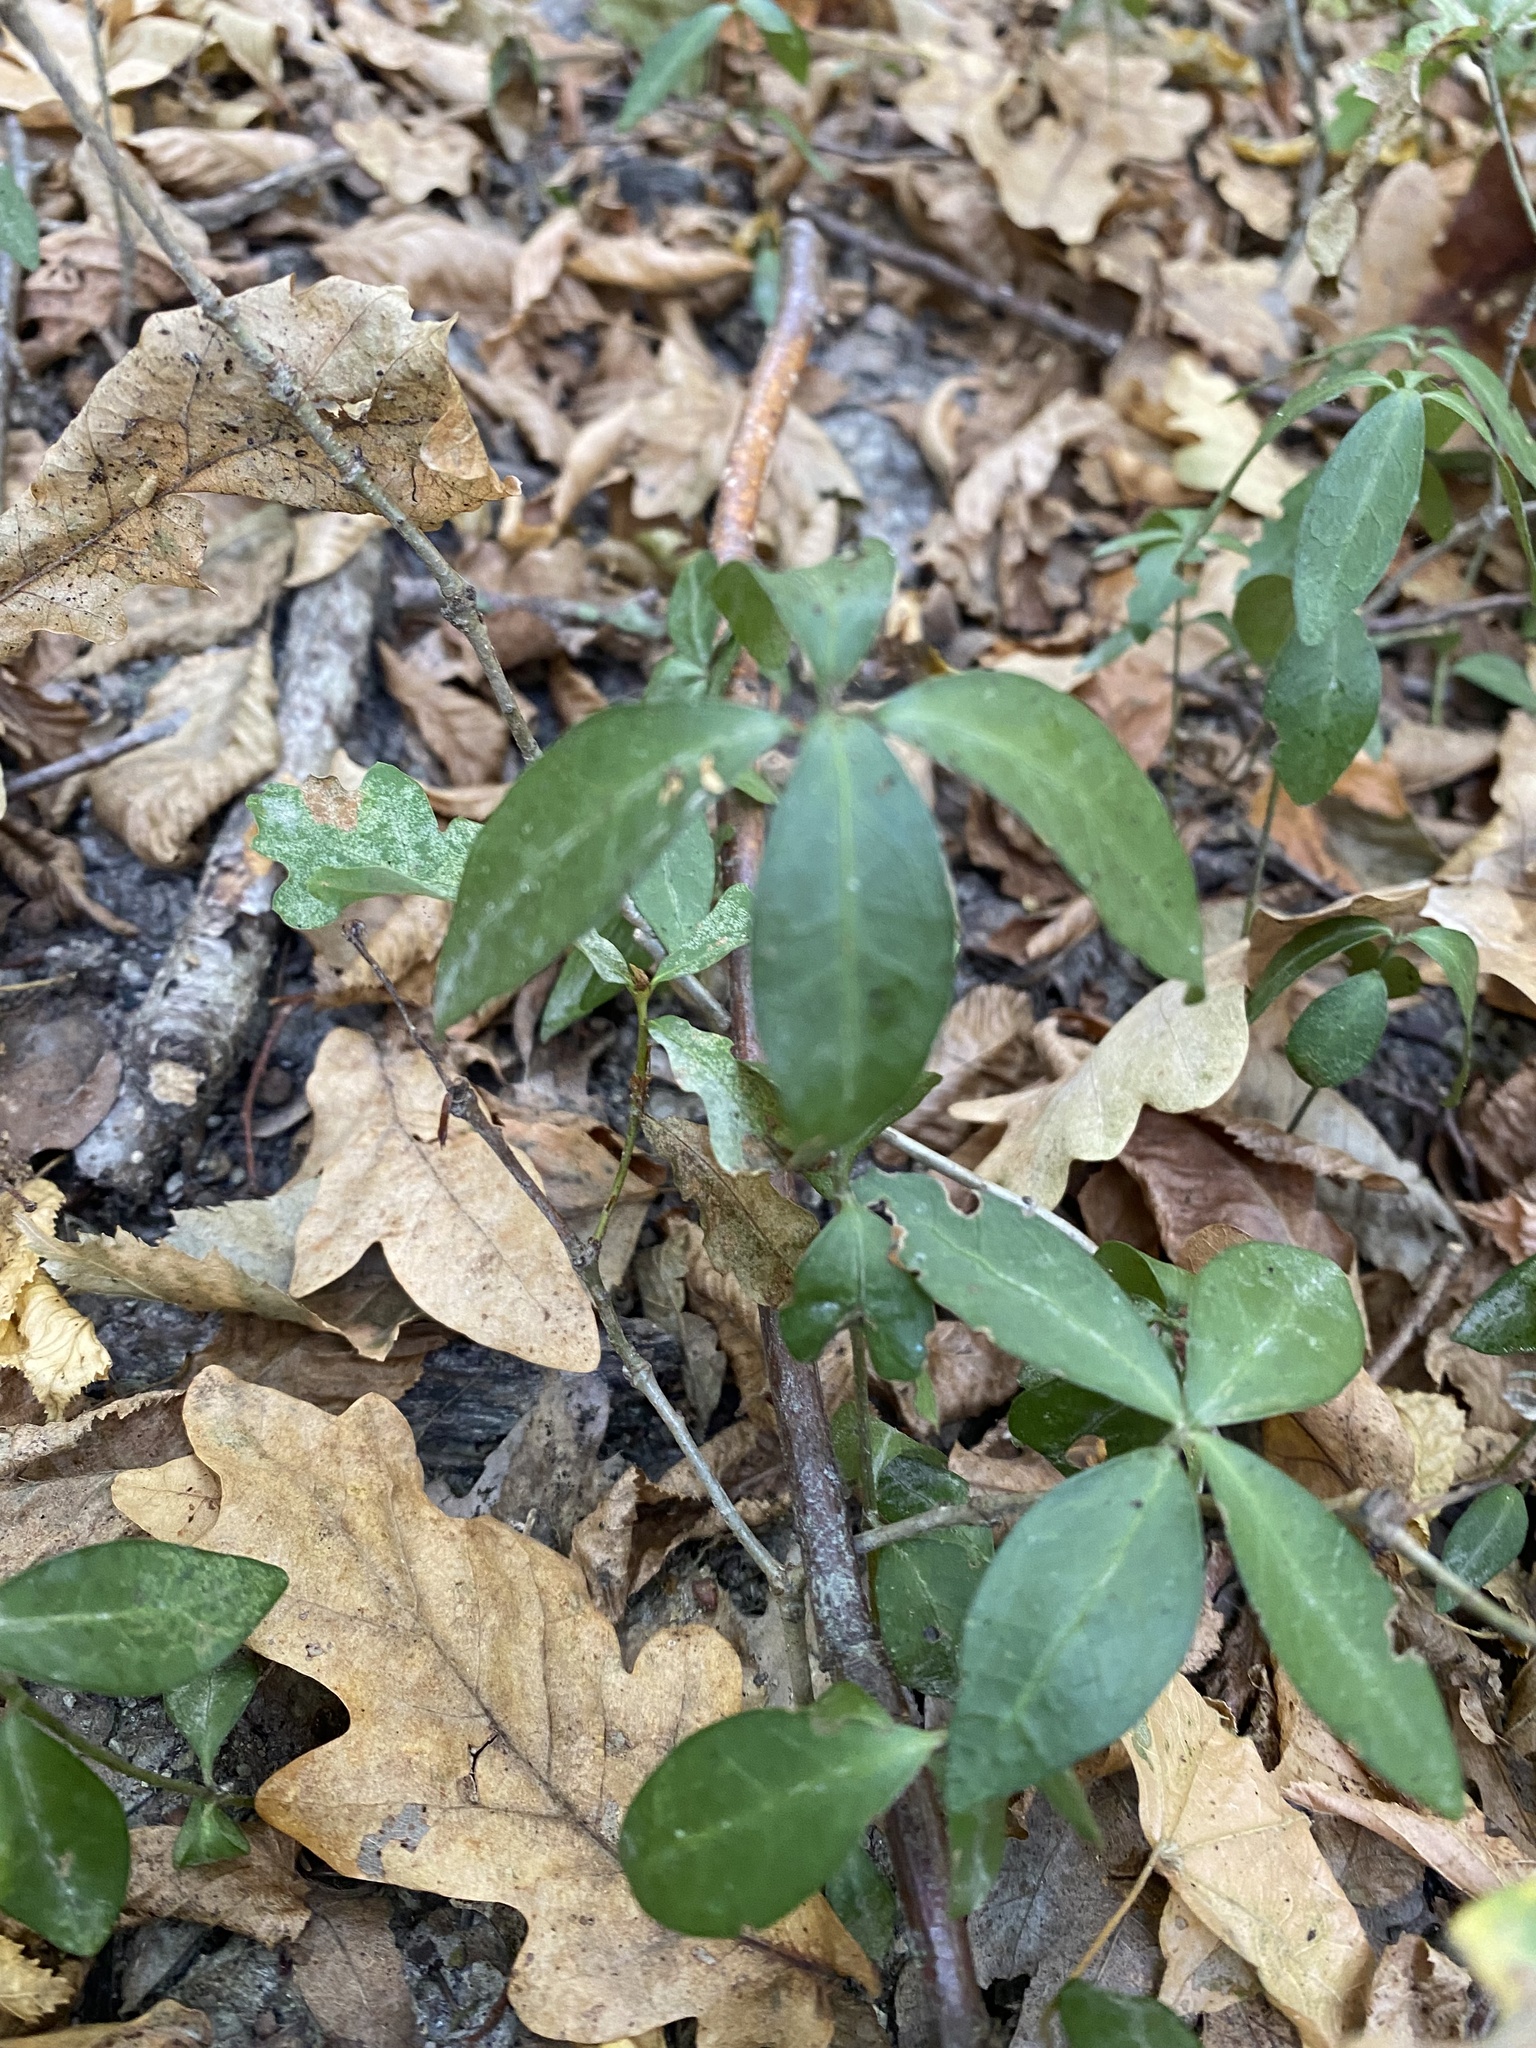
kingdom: Plantae
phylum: Tracheophyta
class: Magnoliopsida
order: Gentianales
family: Apocynaceae
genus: Vinca
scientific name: Vinca minor
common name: Lesser periwinkle
